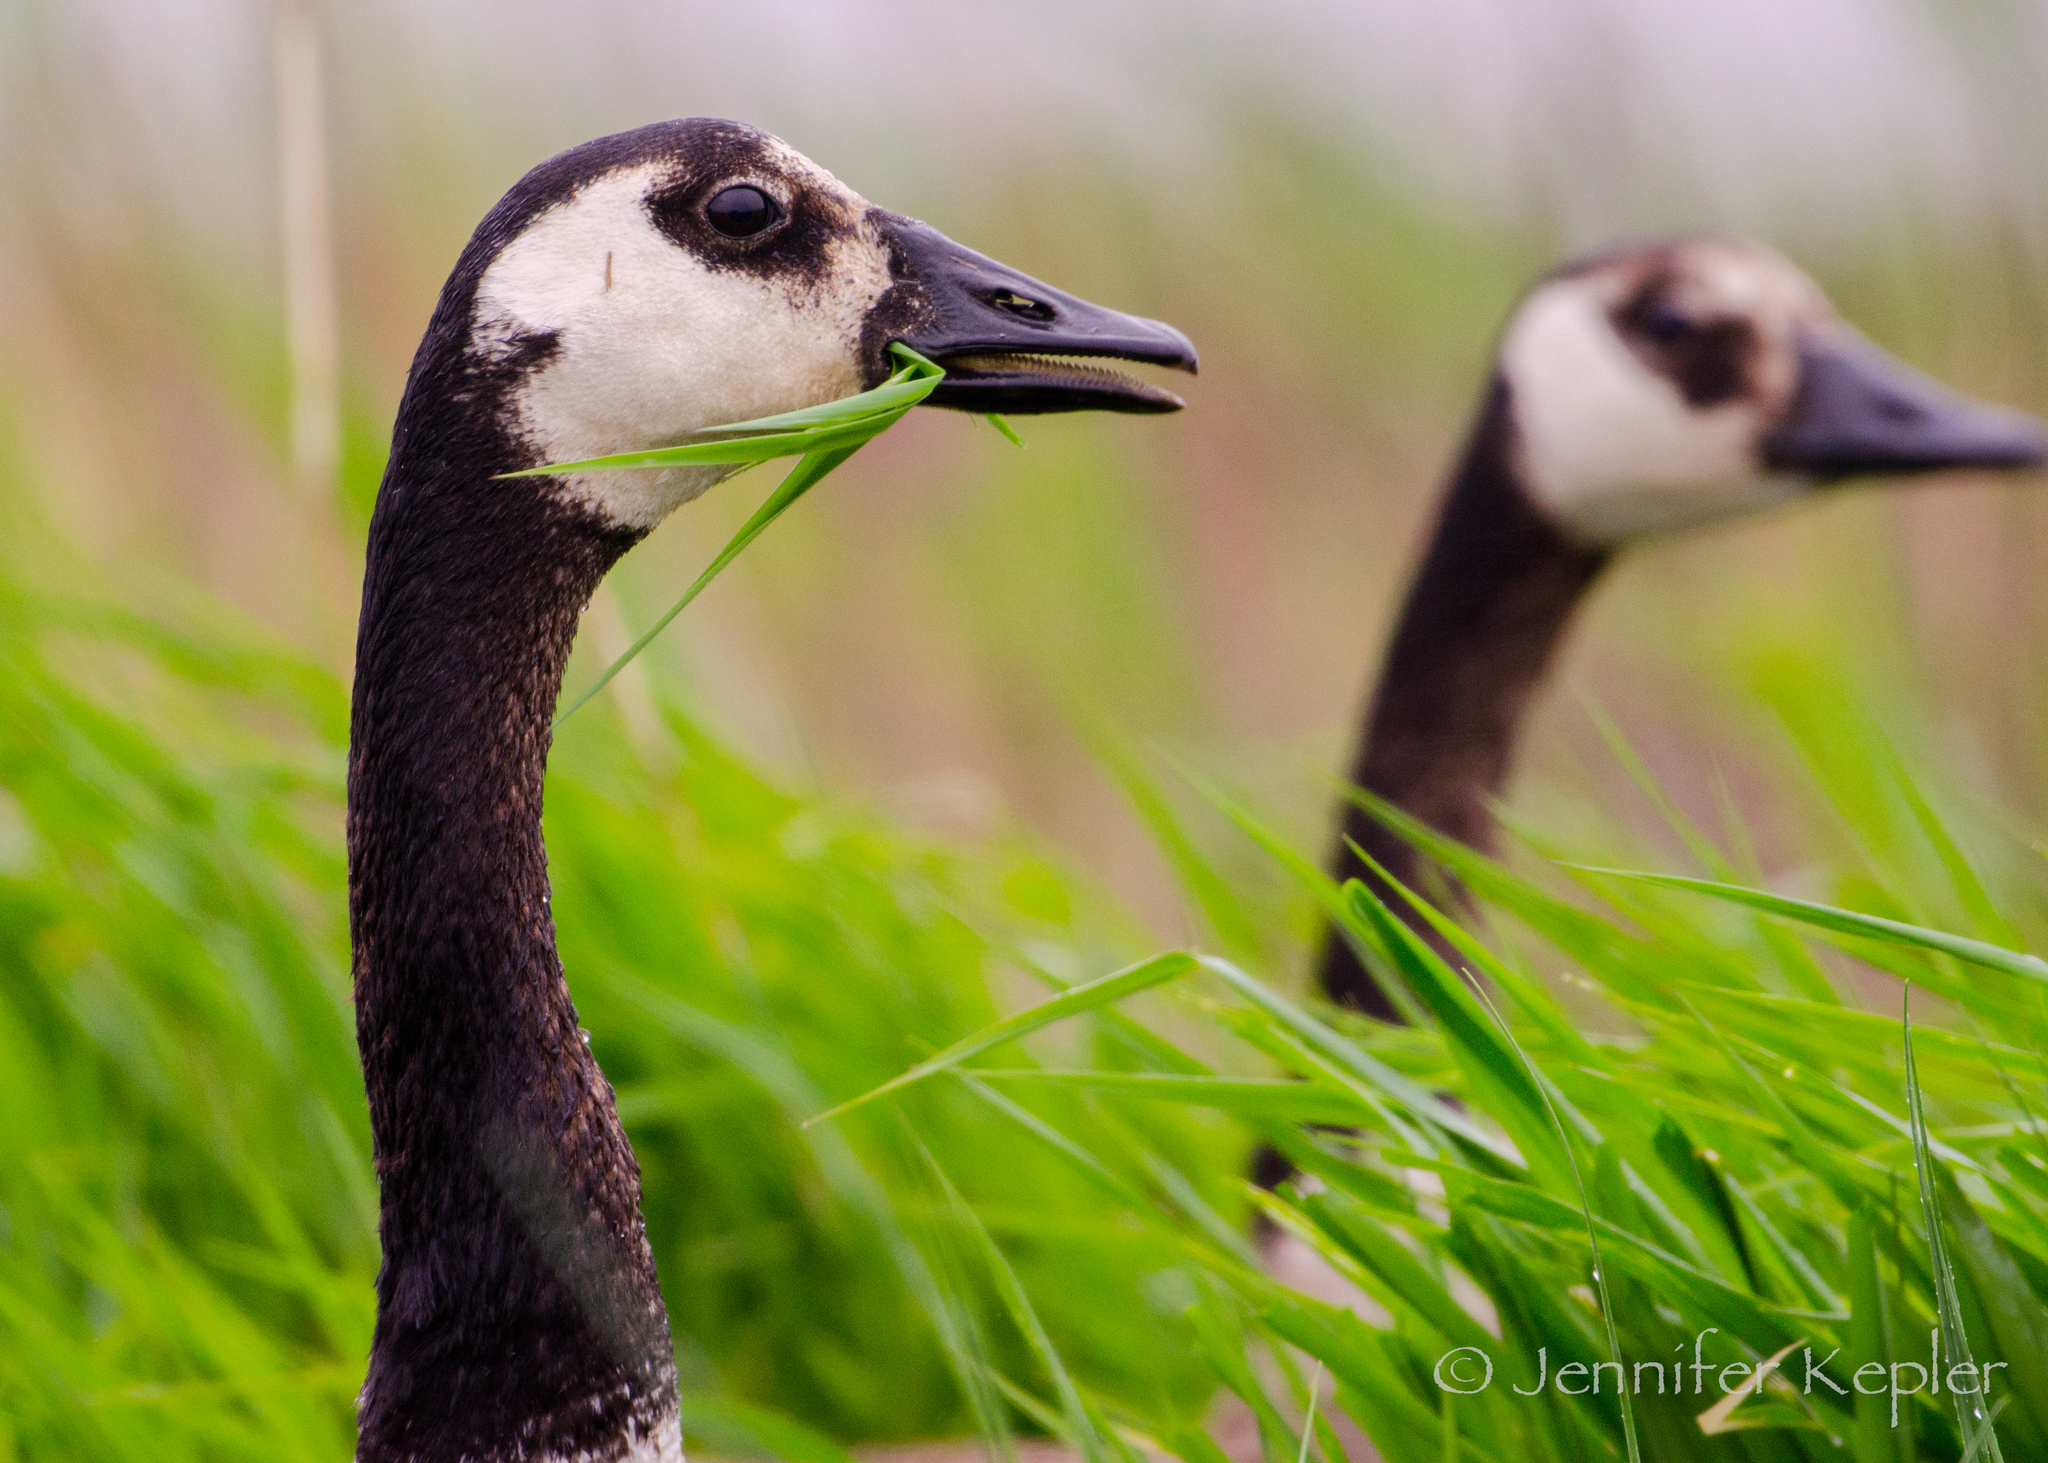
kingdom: Animalia
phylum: Chordata
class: Aves
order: Anseriformes
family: Anatidae
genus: Branta
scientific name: Branta canadensis
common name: Canada goose
